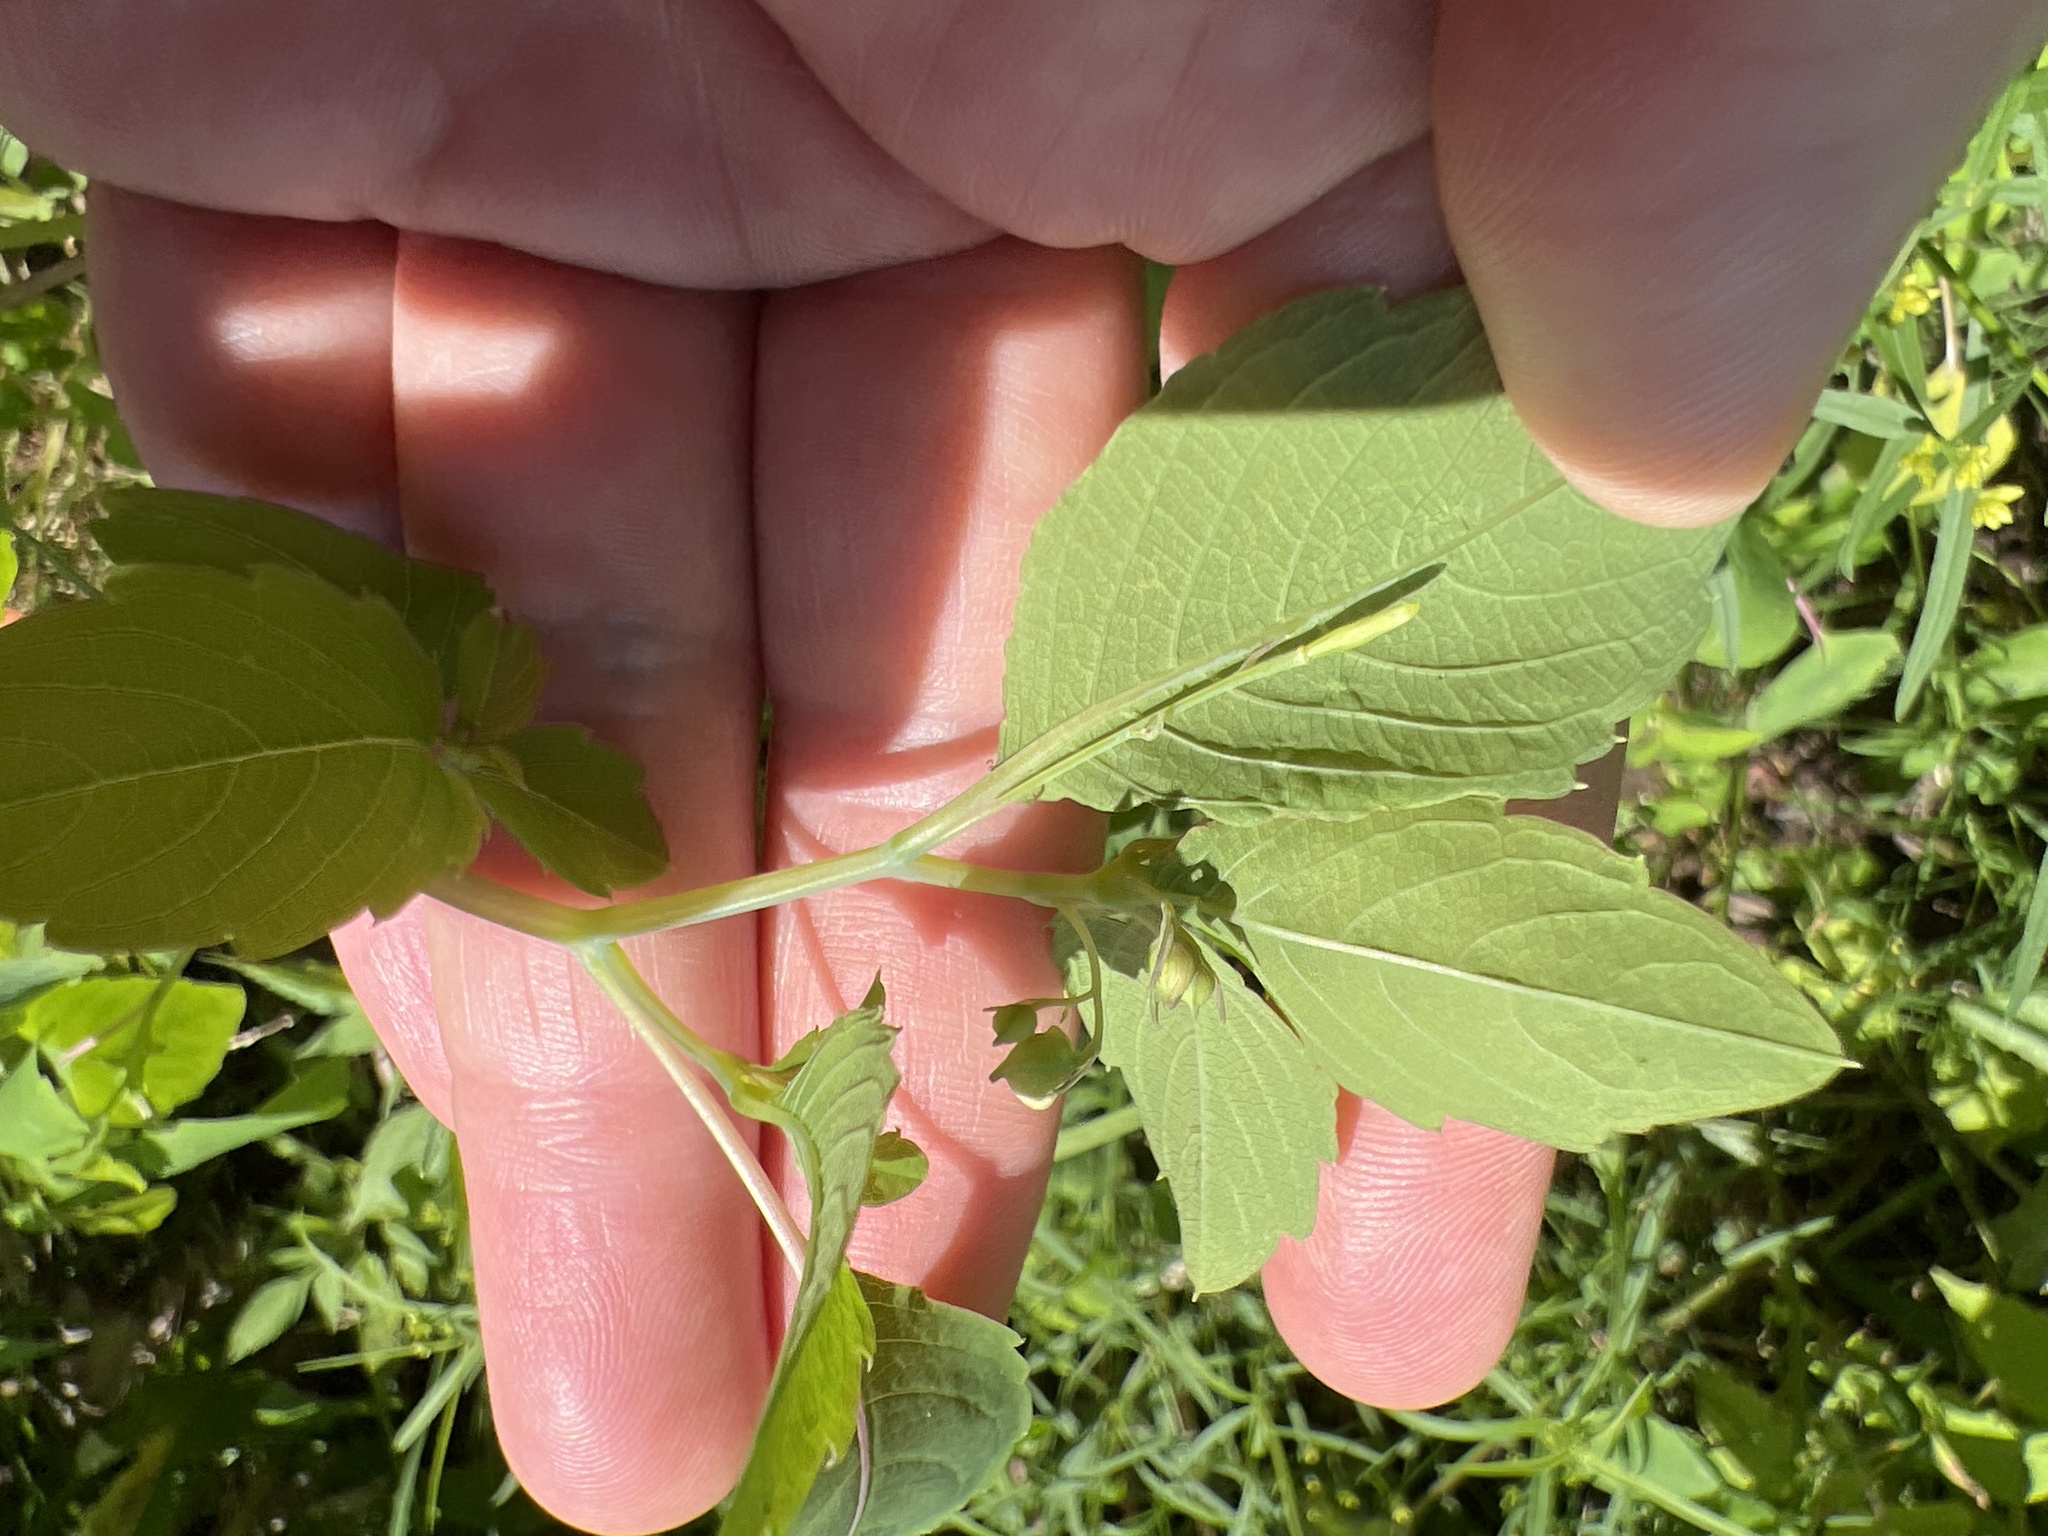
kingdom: Plantae
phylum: Tracheophyta
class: Magnoliopsida
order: Ericales
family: Balsaminaceae
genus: Impatiens
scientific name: Impatiens capensis
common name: Orange balsam
